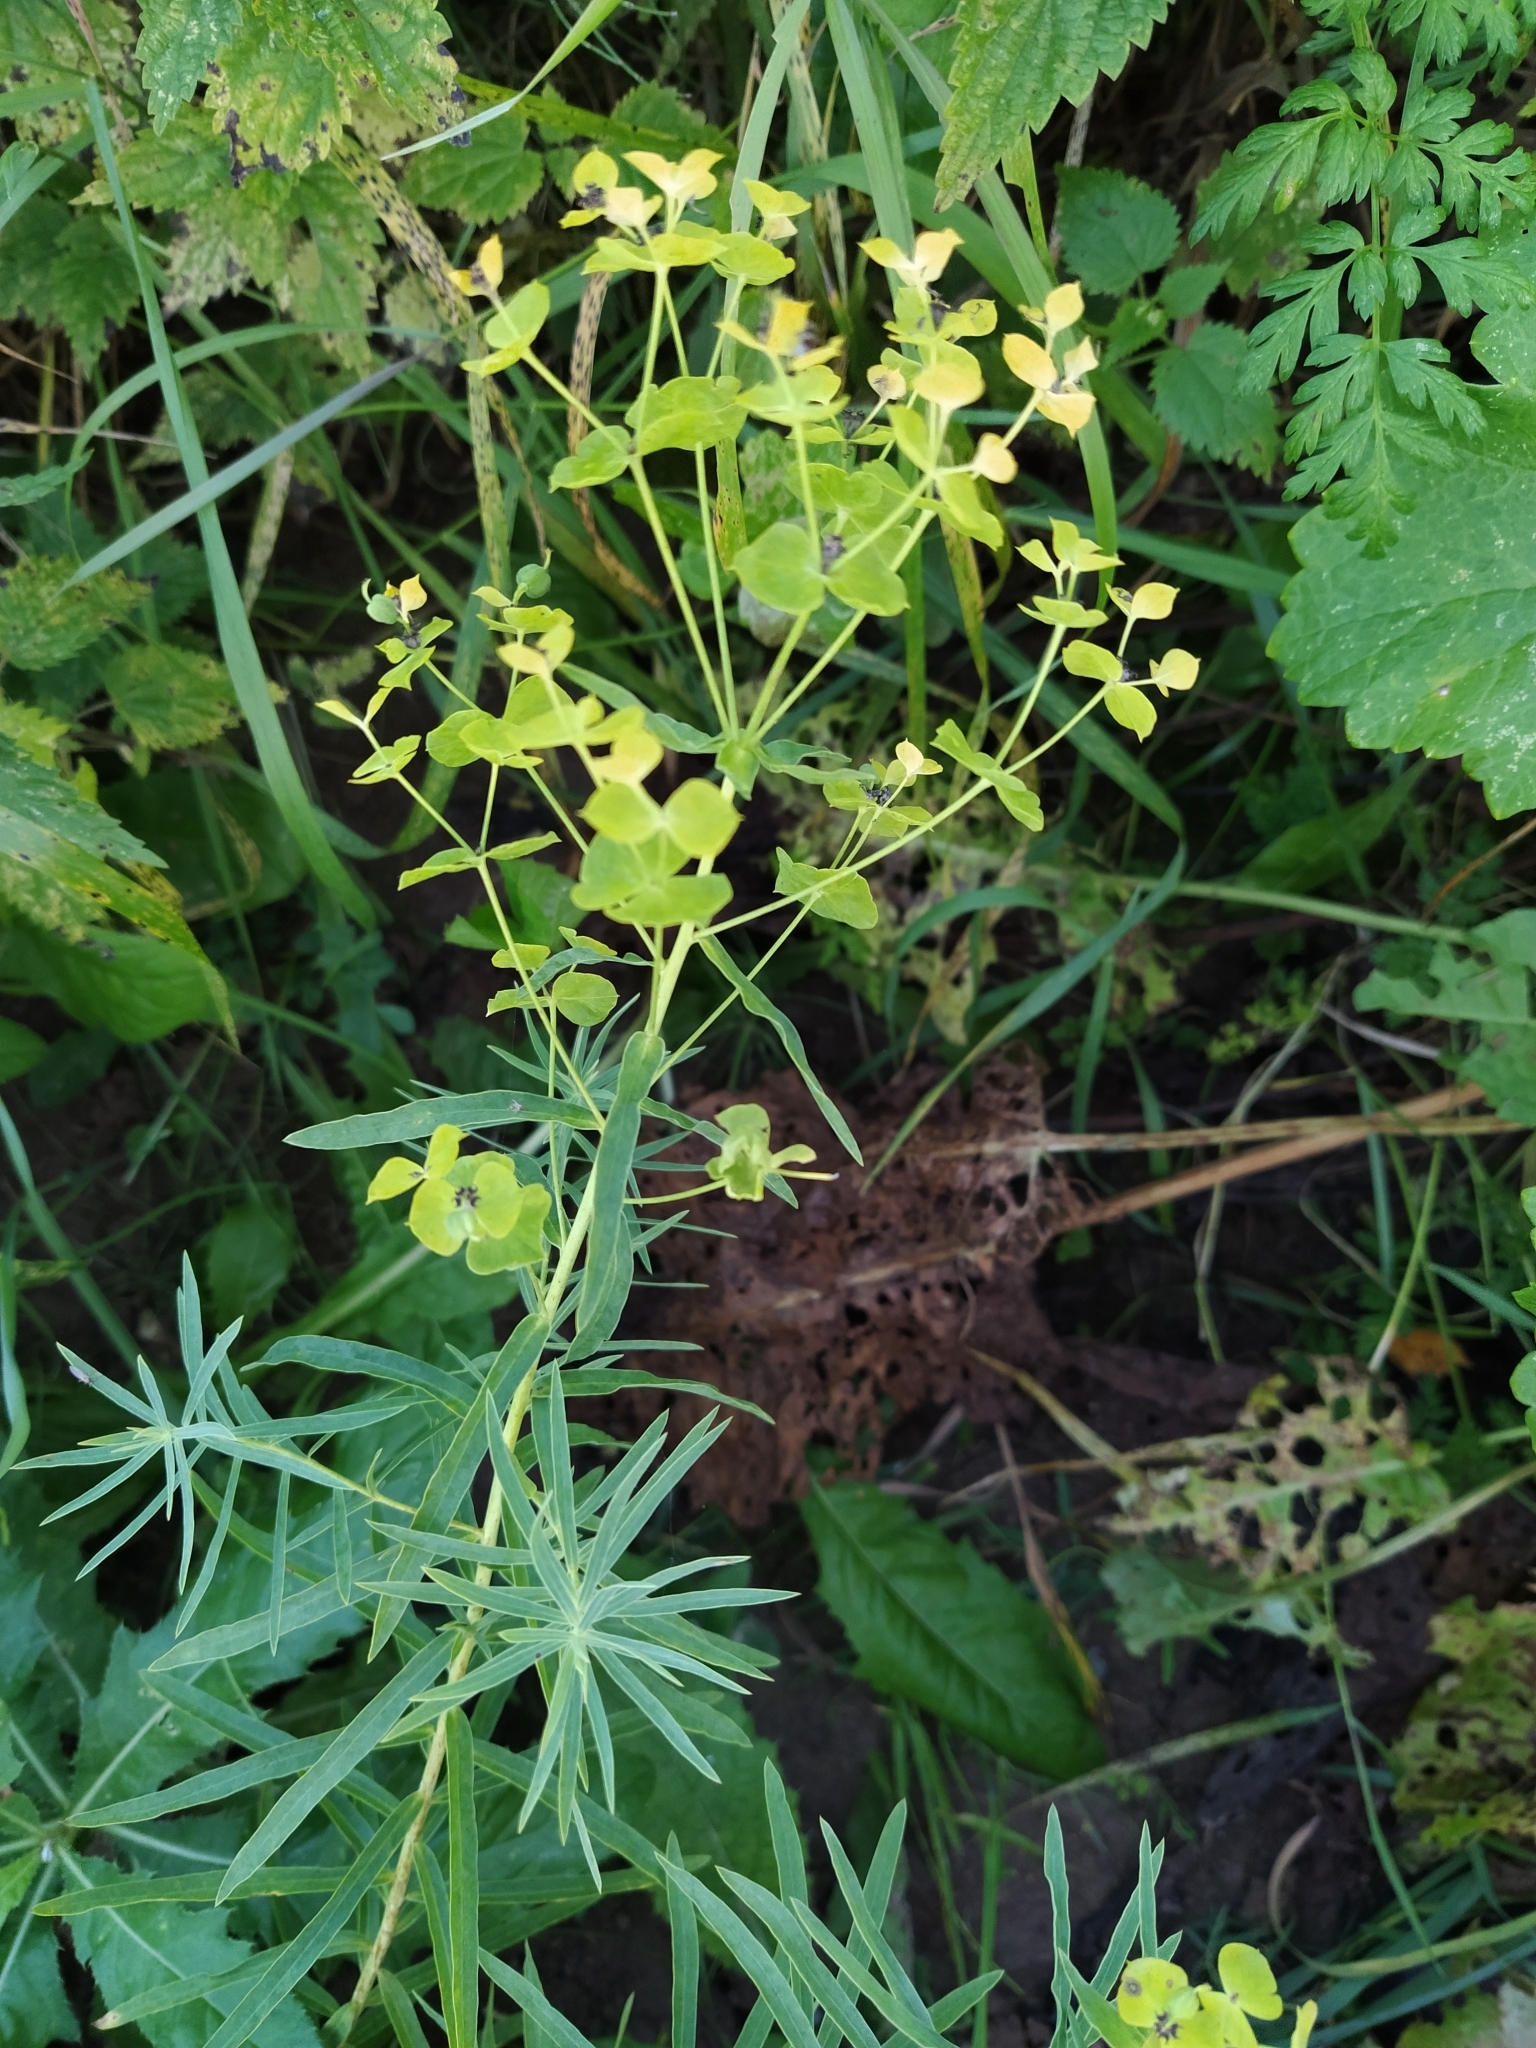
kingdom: Plantae
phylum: Tracheophyta
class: Magnoliopsida
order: Malpighiales
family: Euphorbiaceae
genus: Euphorbia
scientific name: Euphorbia virgata
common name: Leafy spurge
